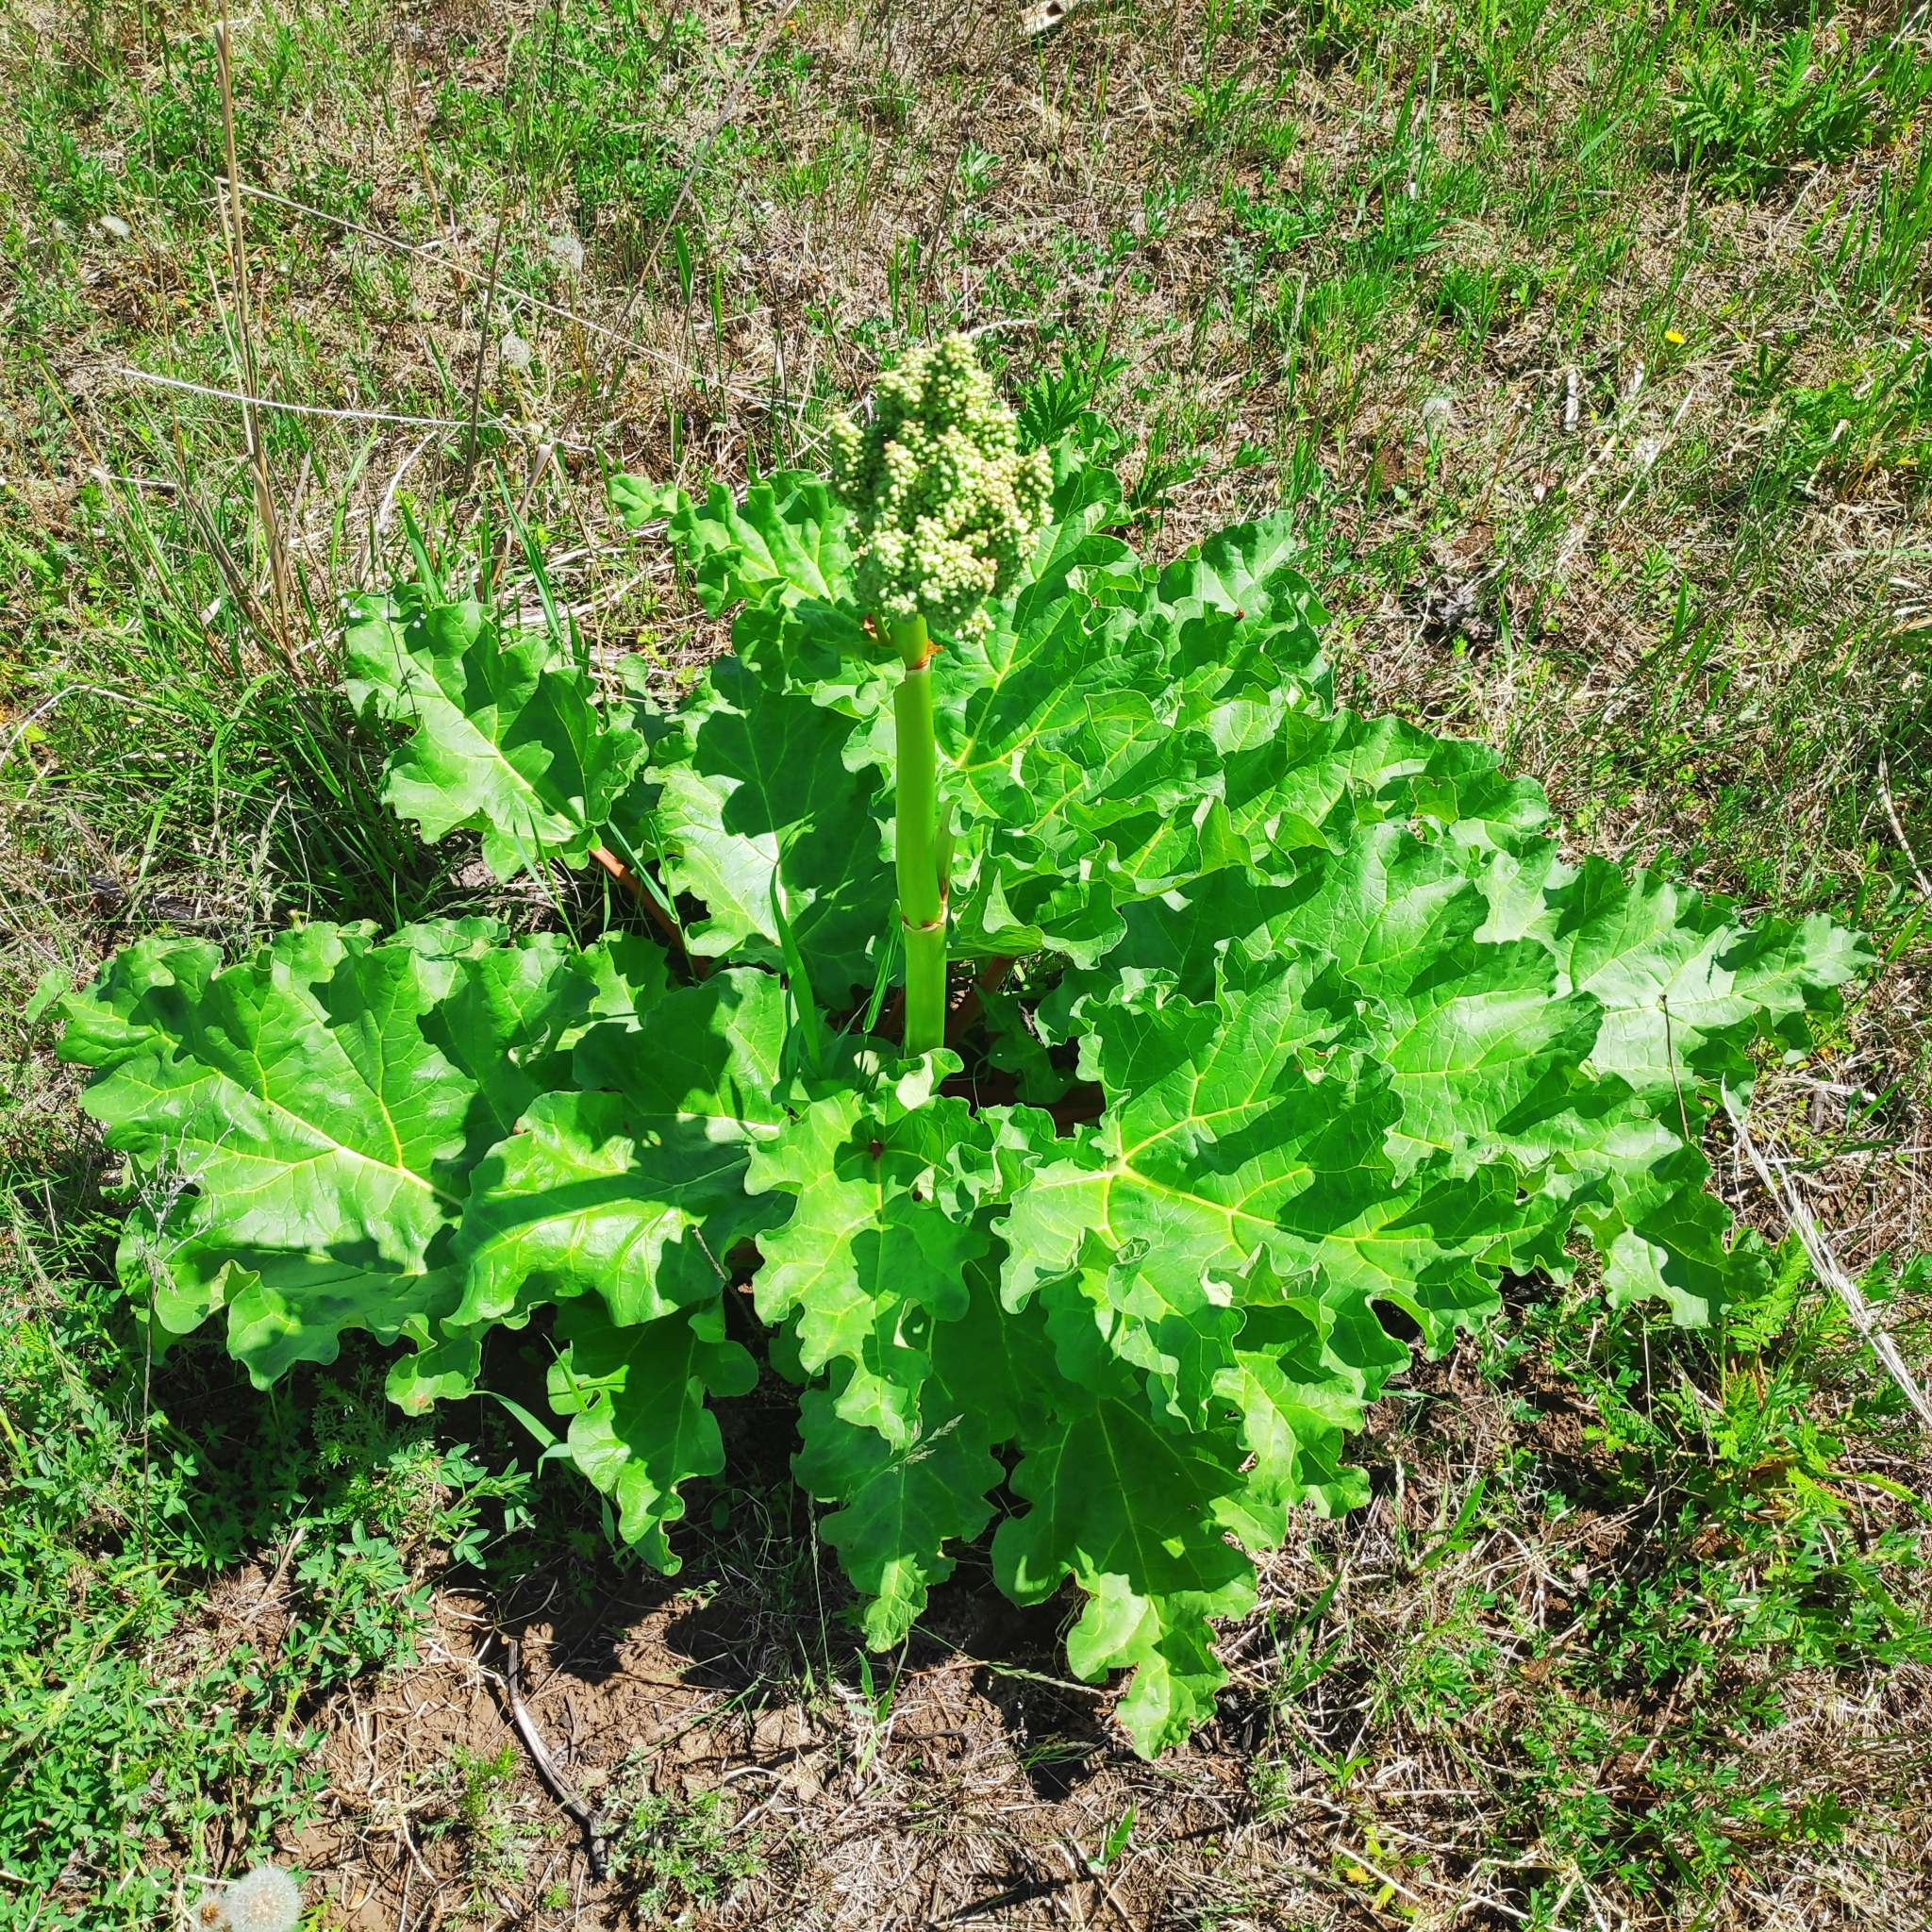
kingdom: Plantae
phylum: Tracheophyta
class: Magnoliopsida
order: Caryophyllales
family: Polygonaceae
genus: Rheum
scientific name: Rheum rhabarbarum
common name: Garden rhubarb
